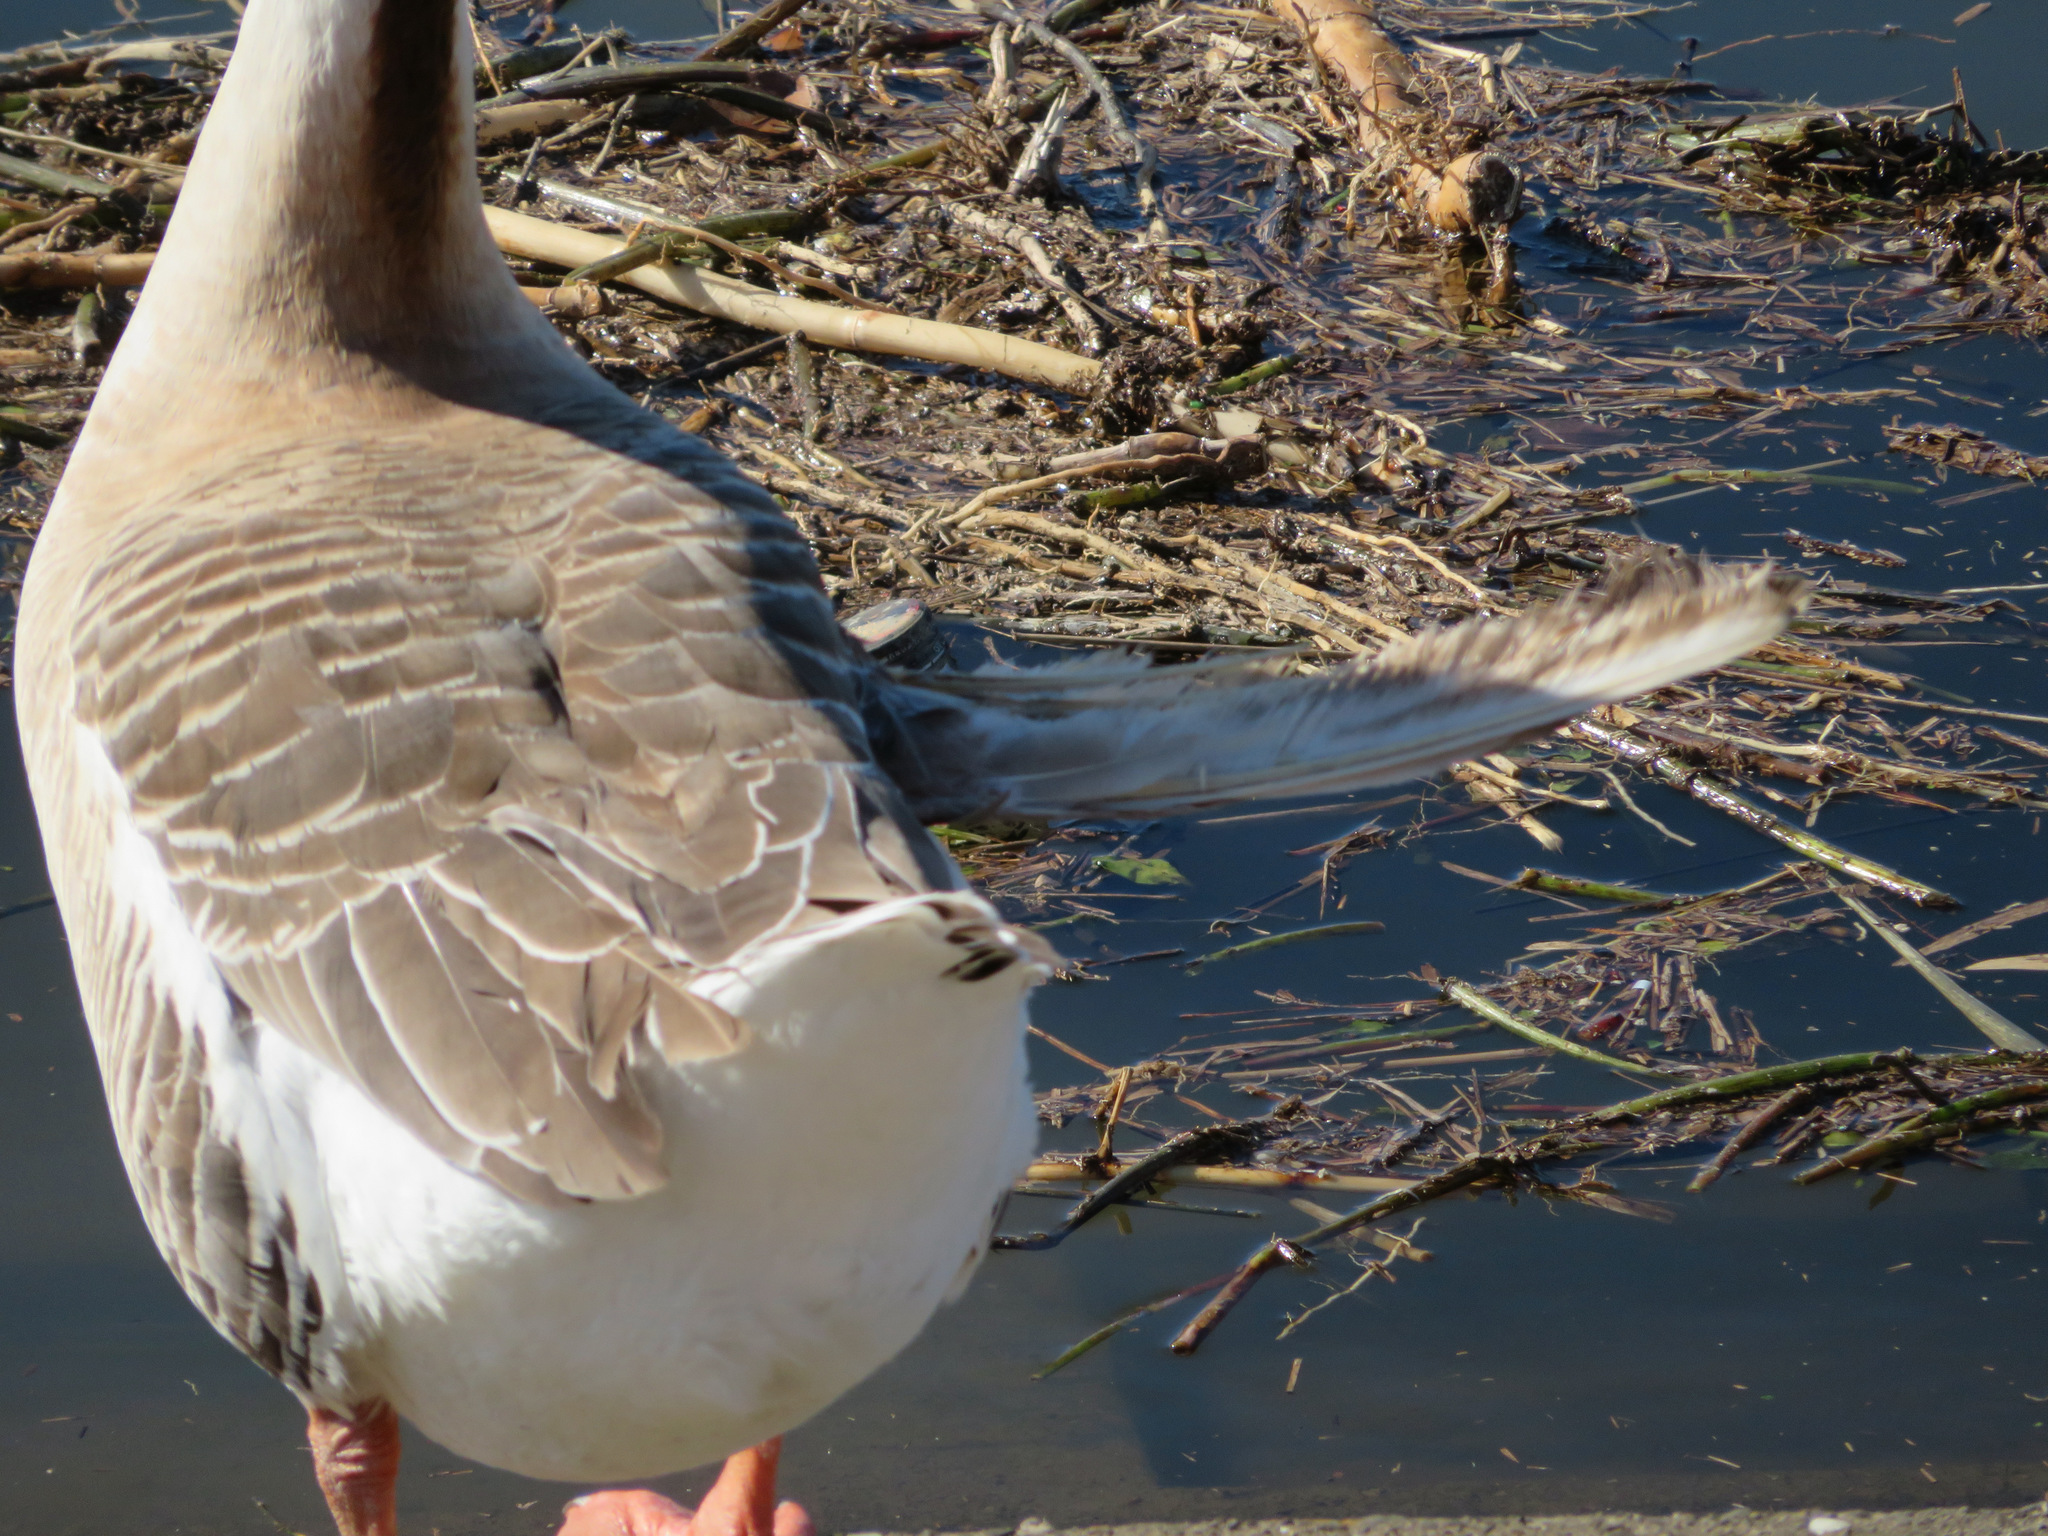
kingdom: Animalia
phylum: Chordata
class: Aves
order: Anseriformes
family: Anatidae
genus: Anser
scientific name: Anser cygnoides
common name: Swan goose
